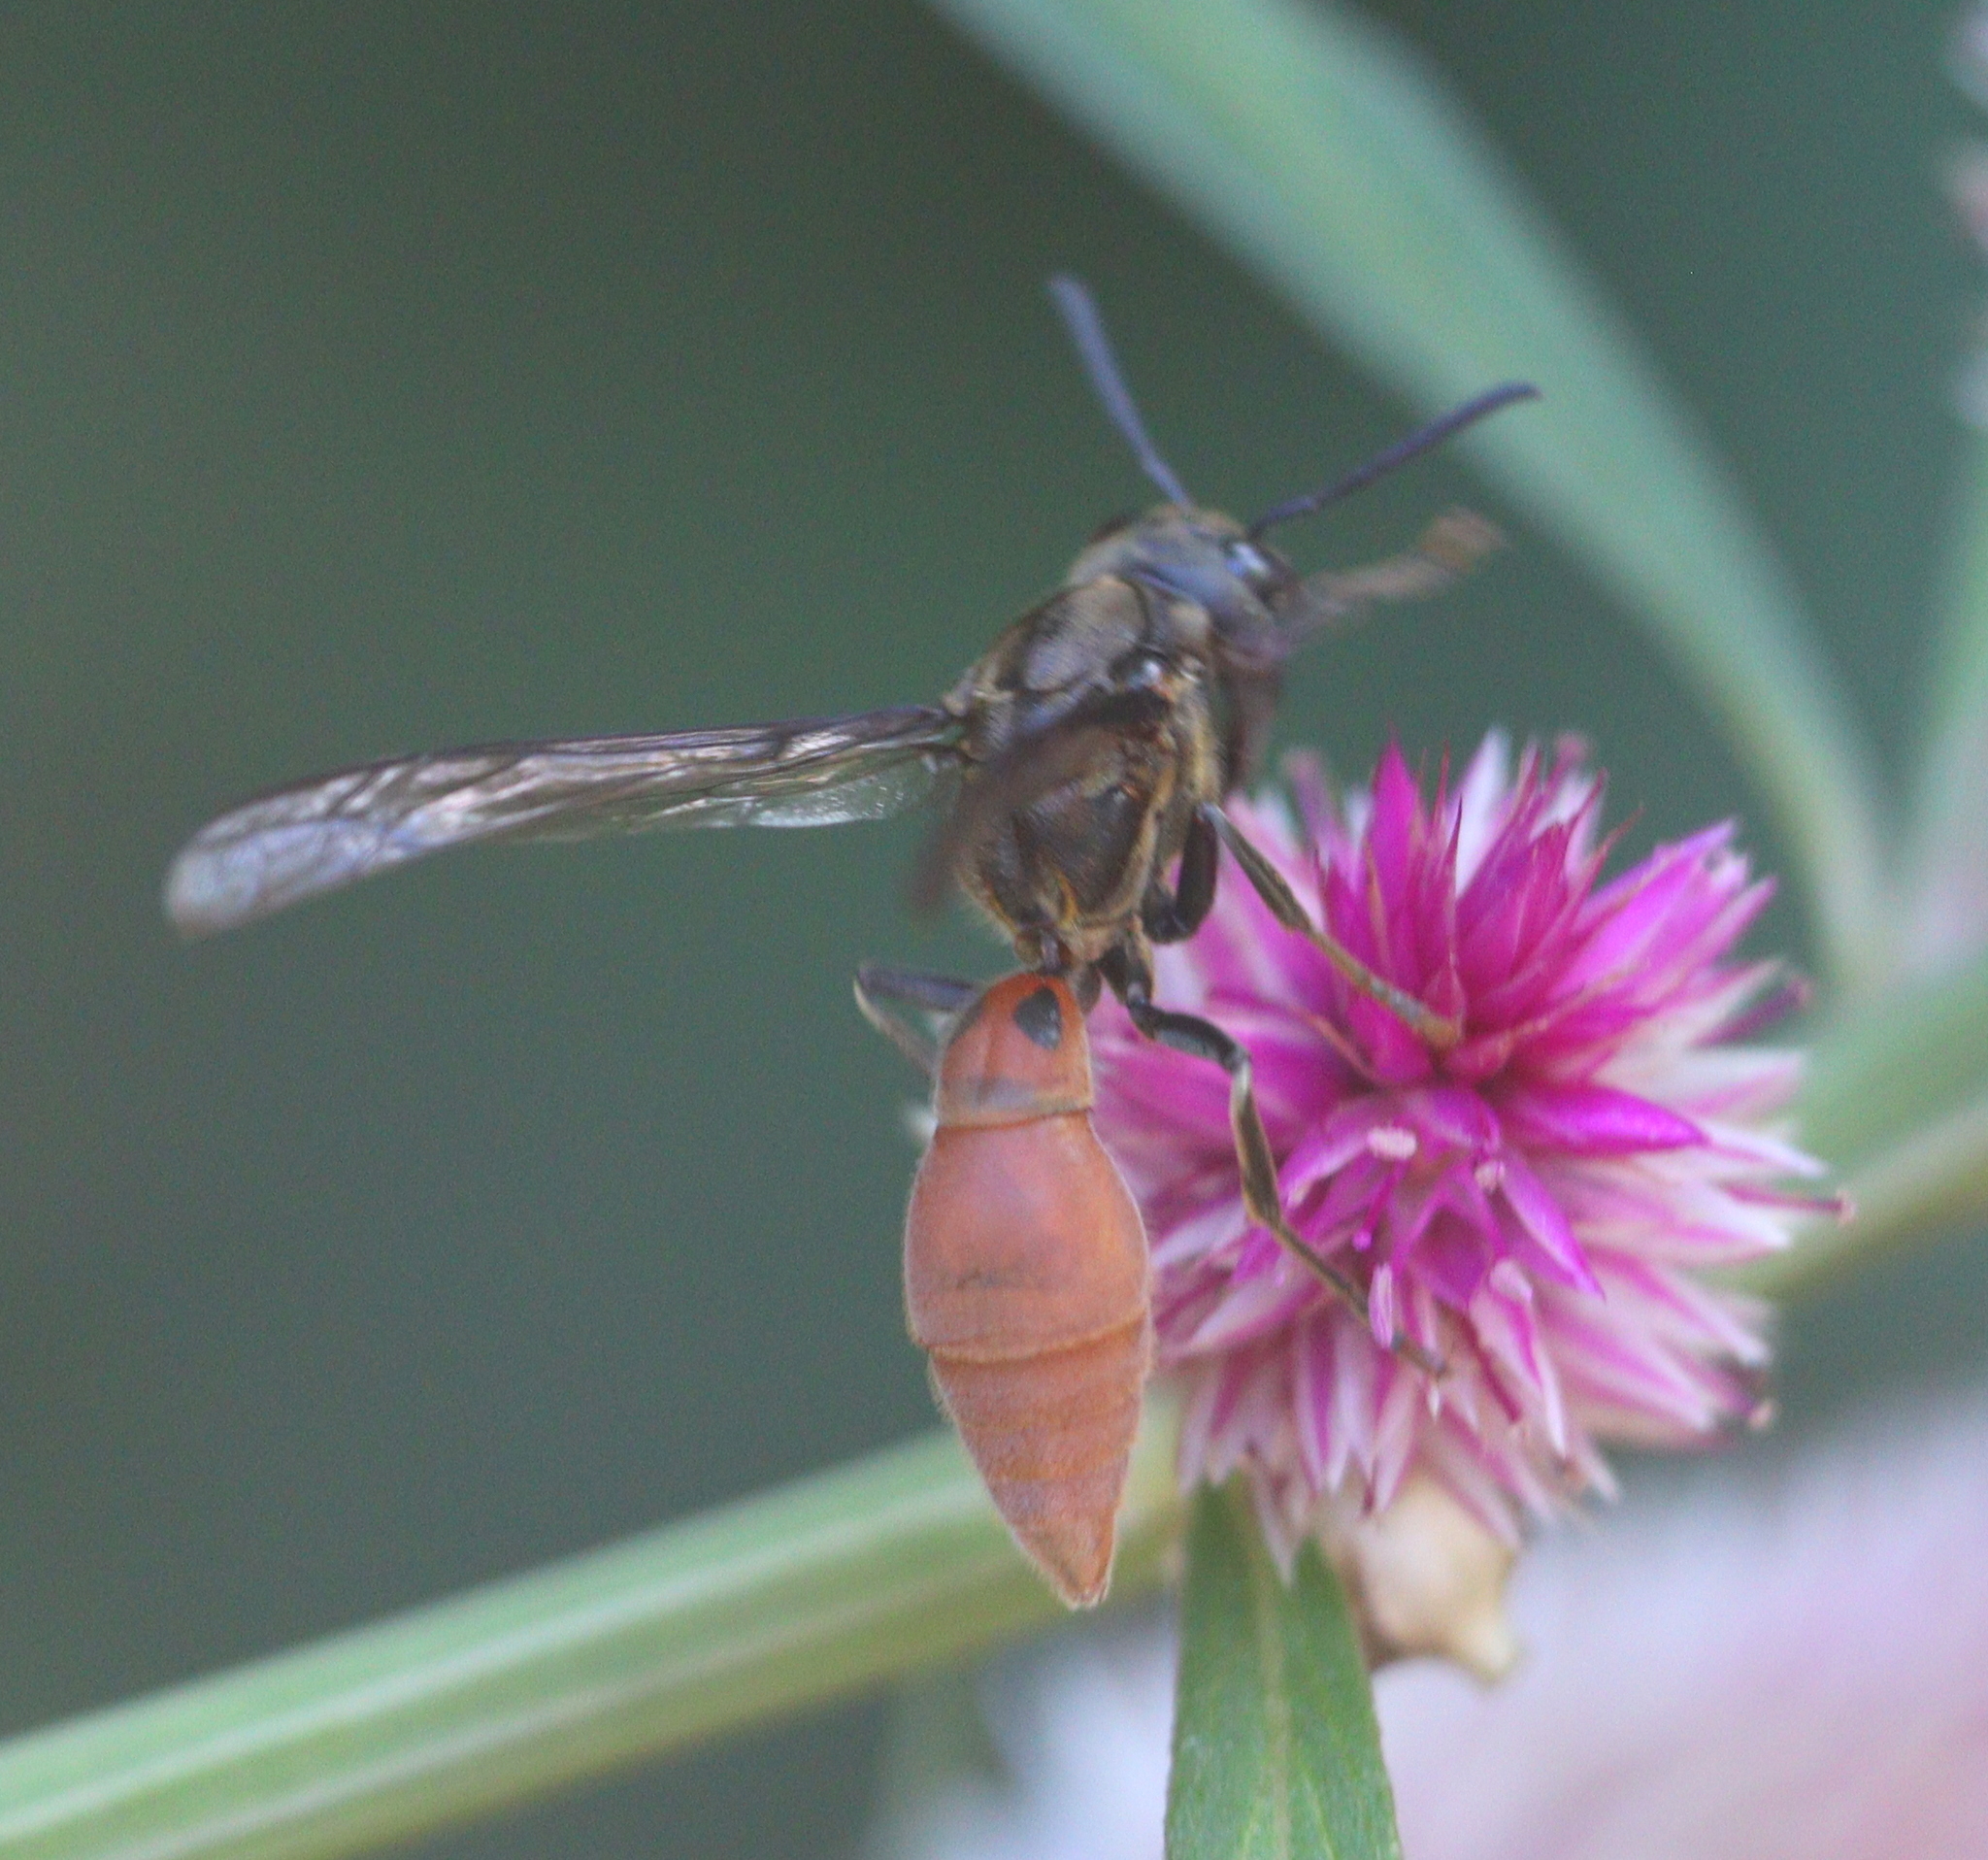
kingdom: Animalia
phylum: Arthropoda
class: Insecta
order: Hymenoptera
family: Eumenidae
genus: Montezumia
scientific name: Montezumia dimidiata
